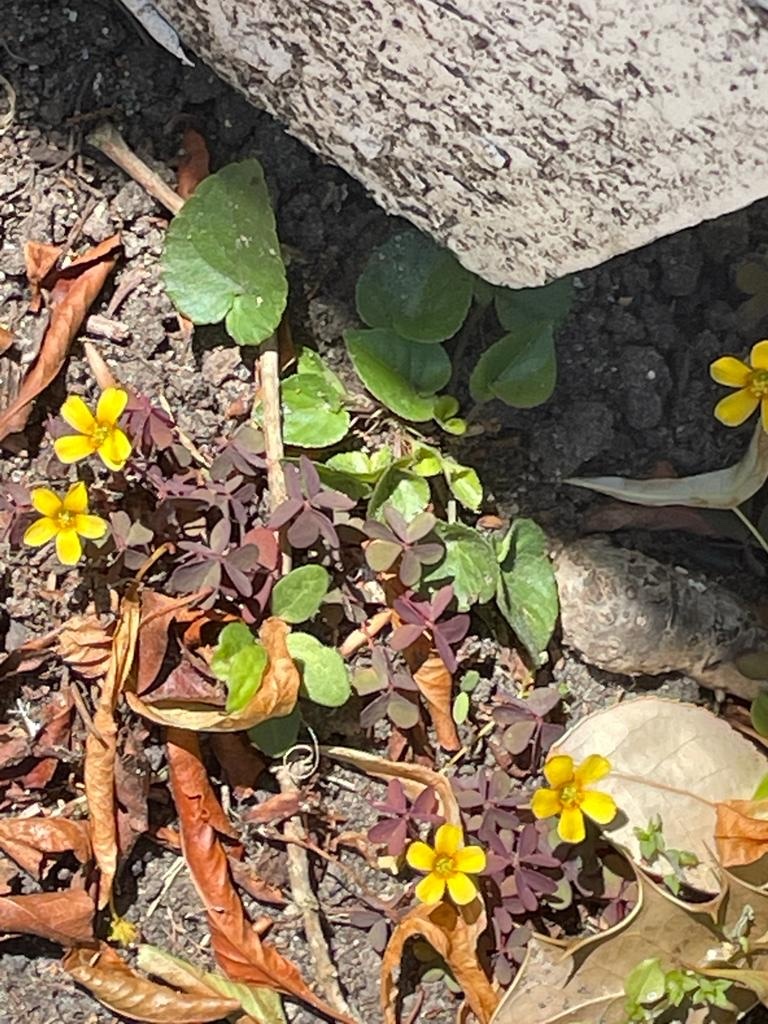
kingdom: Plantae
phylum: Tracheophyta
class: Magnoliopsida
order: Oxalidales
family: Oxalidaceae
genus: Oxalis
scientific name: Oxalis corniculata
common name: Procumbent yellow-sorrel
